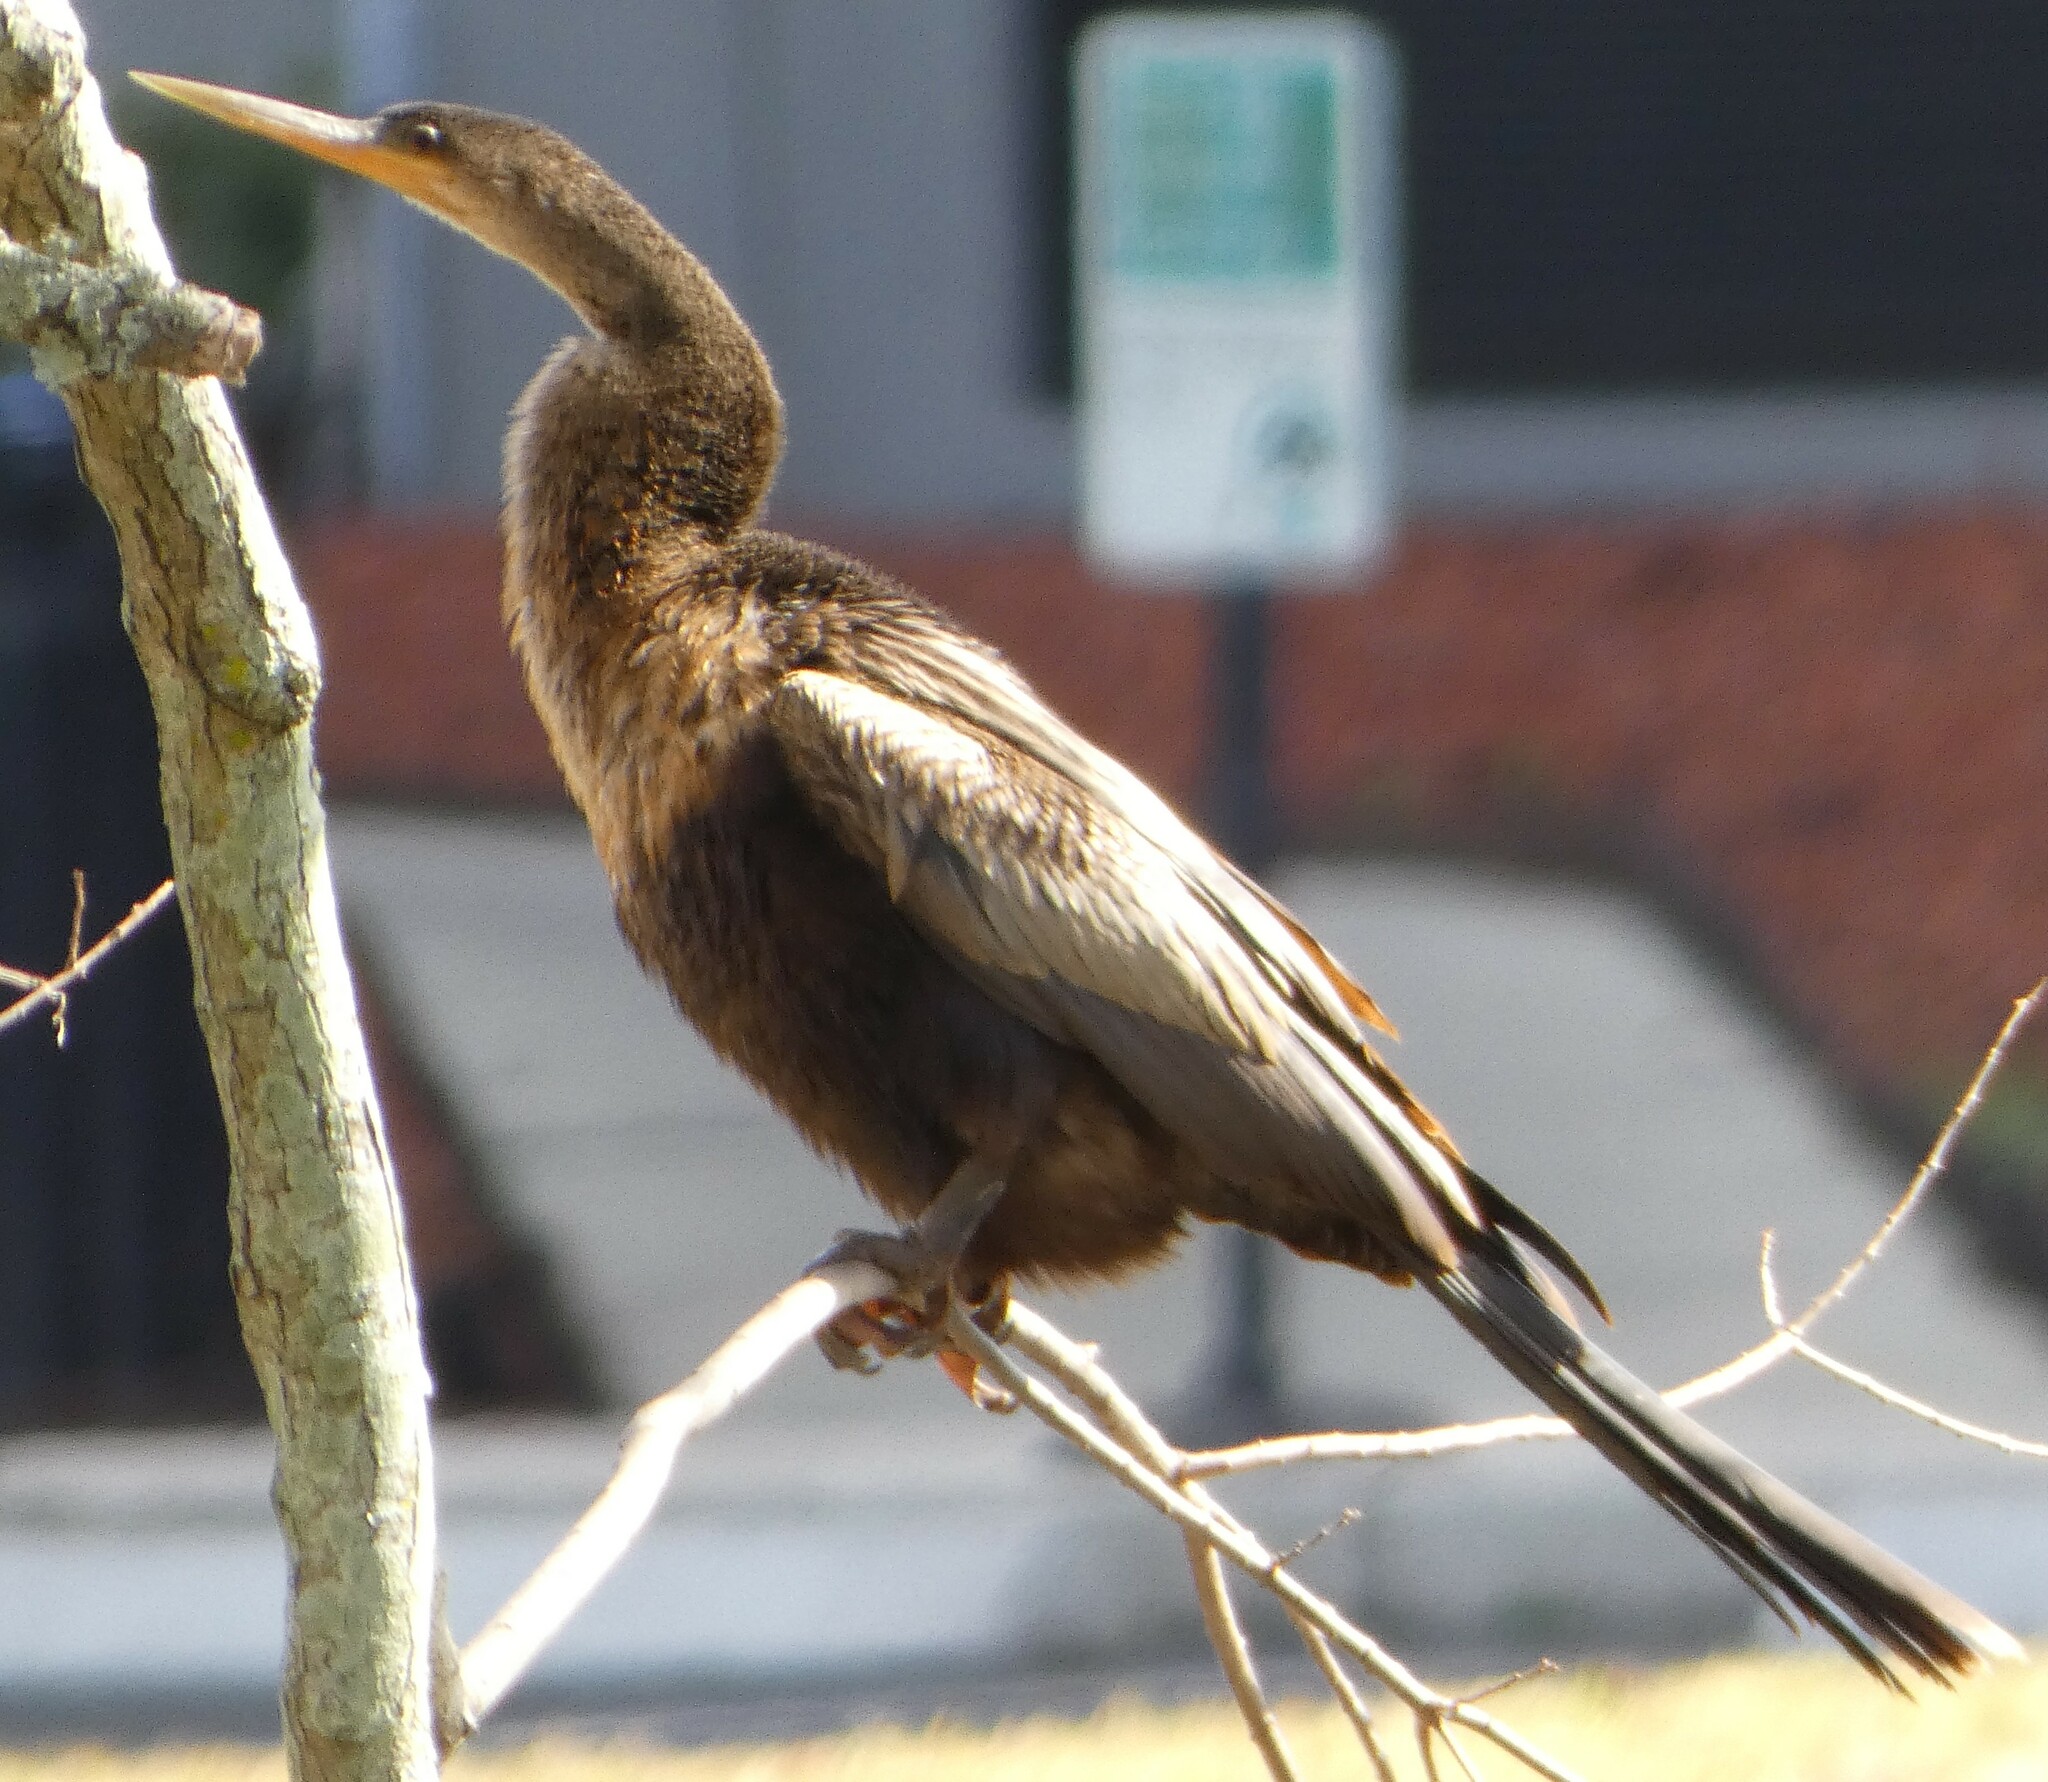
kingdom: Animalia
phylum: Chordata
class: Aves
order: Suliformes
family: Anhingidae
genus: Anhinga
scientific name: Anhinga anhinga
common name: Anhinga
